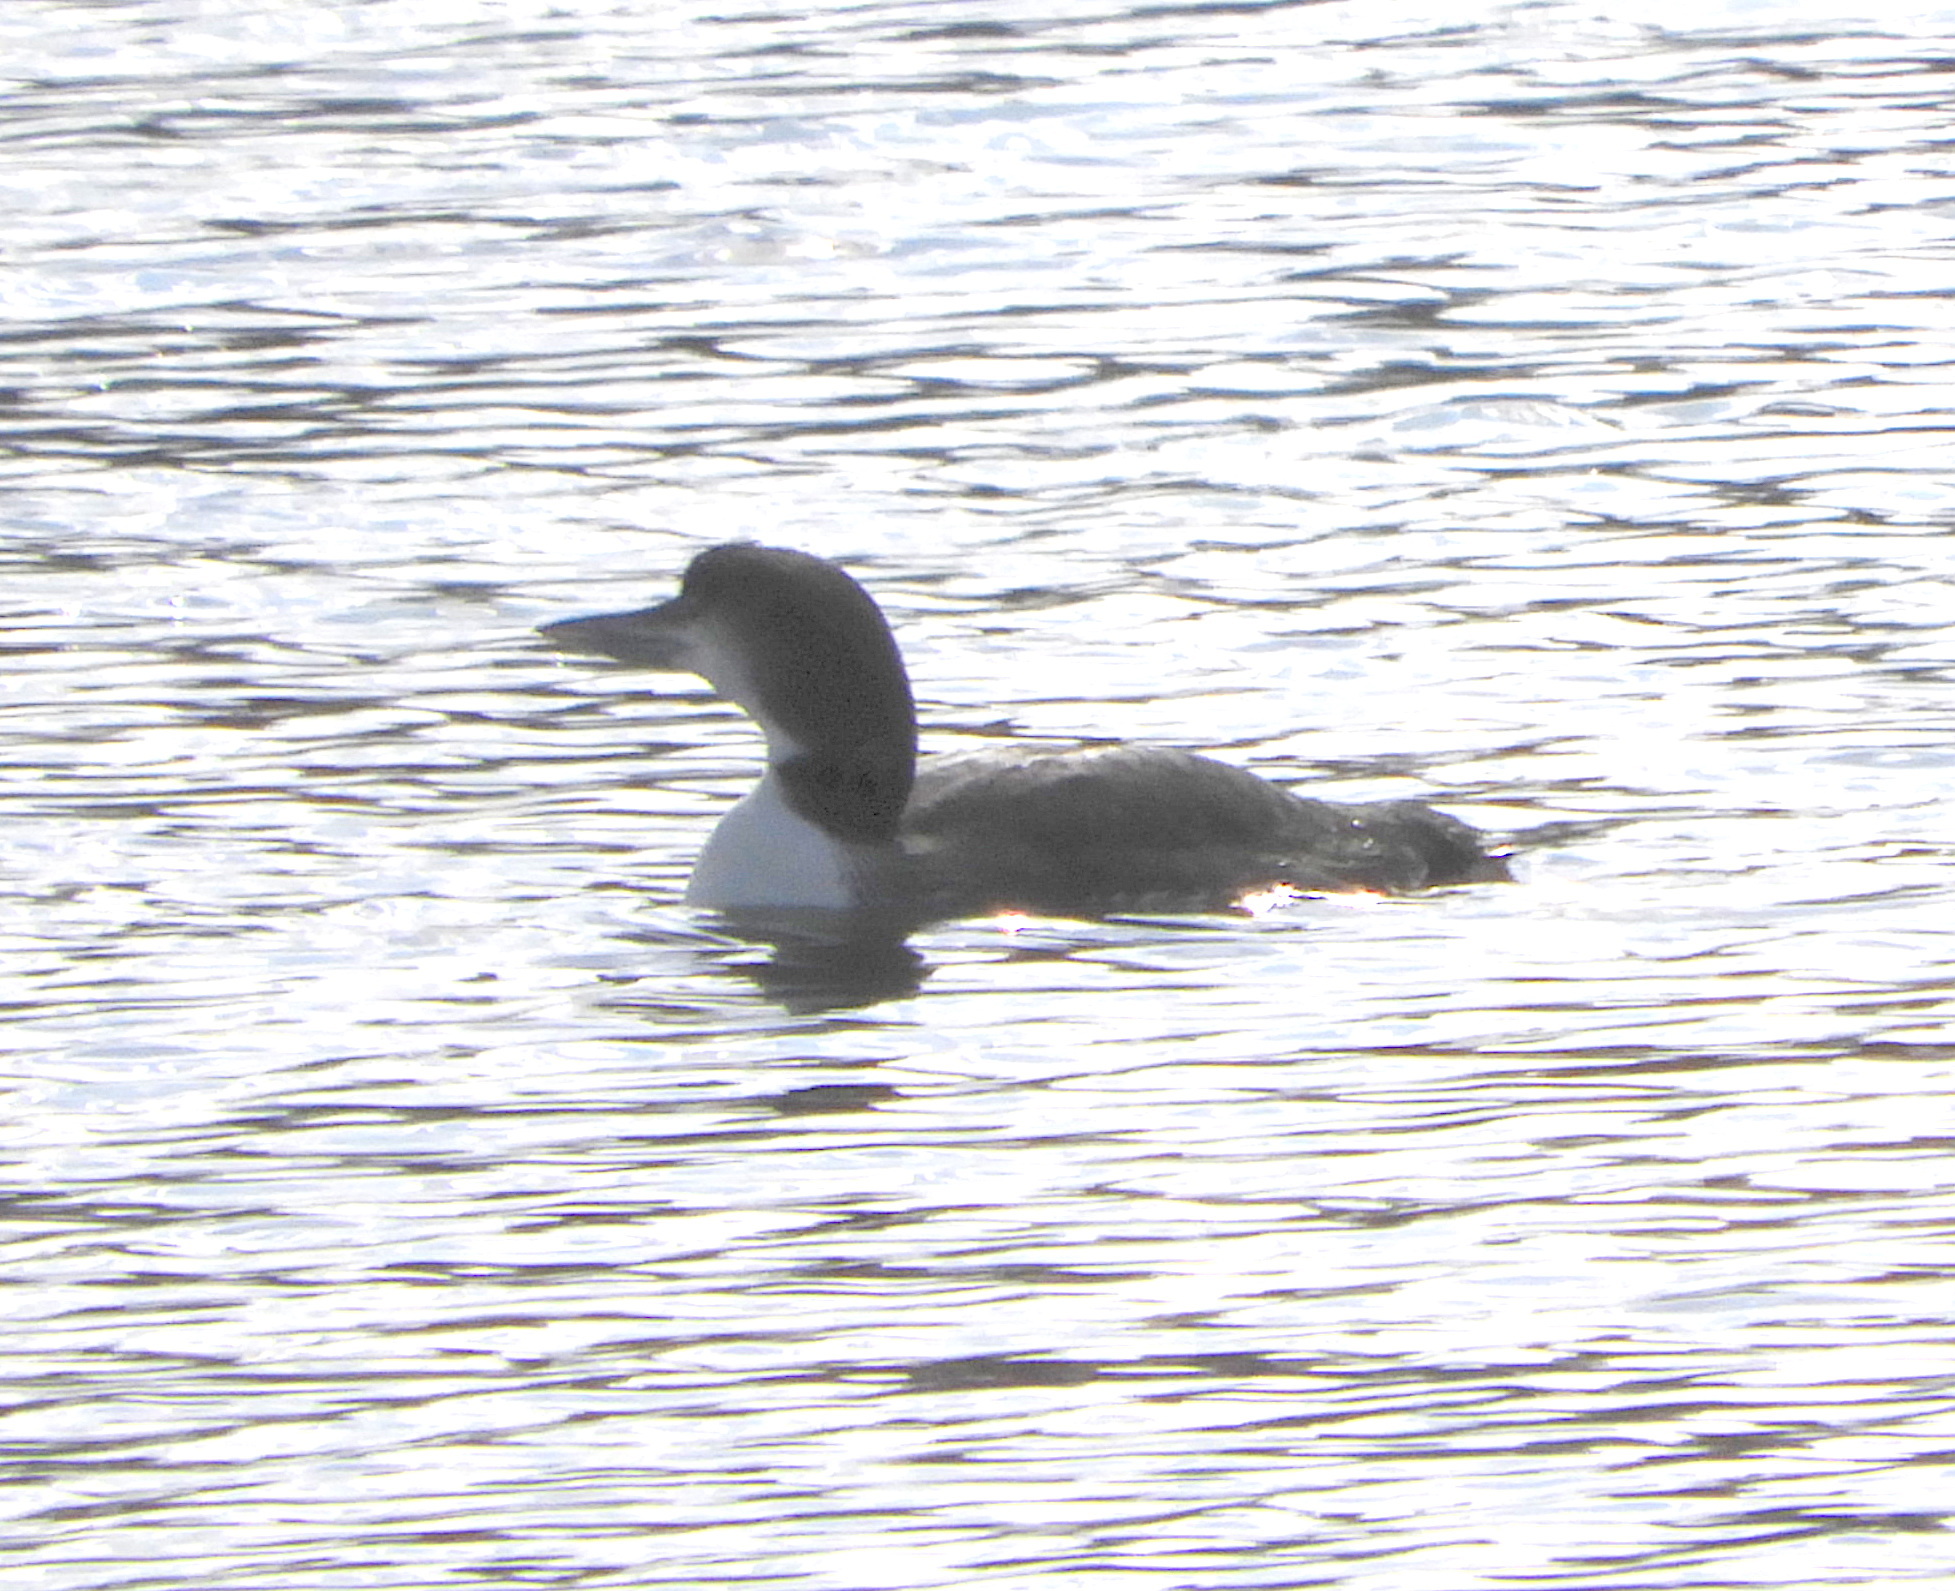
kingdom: Animalia
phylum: Chordata
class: Aves
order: Gaviiformes
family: Gaviidae
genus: Gavia
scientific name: Gavia immer
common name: Common loon
